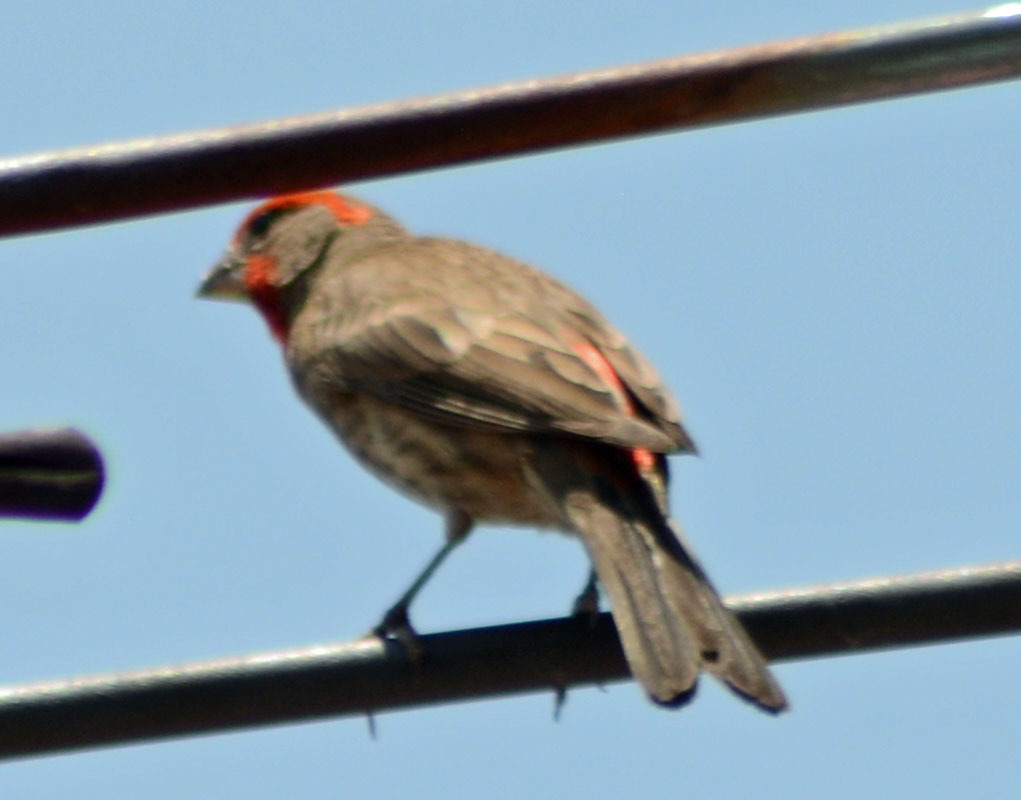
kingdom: Animalia
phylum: Chordata
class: Aves
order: Passeriformes
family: Fringillidae
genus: Haemorhous
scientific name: Haemorhous mexicanus
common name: House finch
